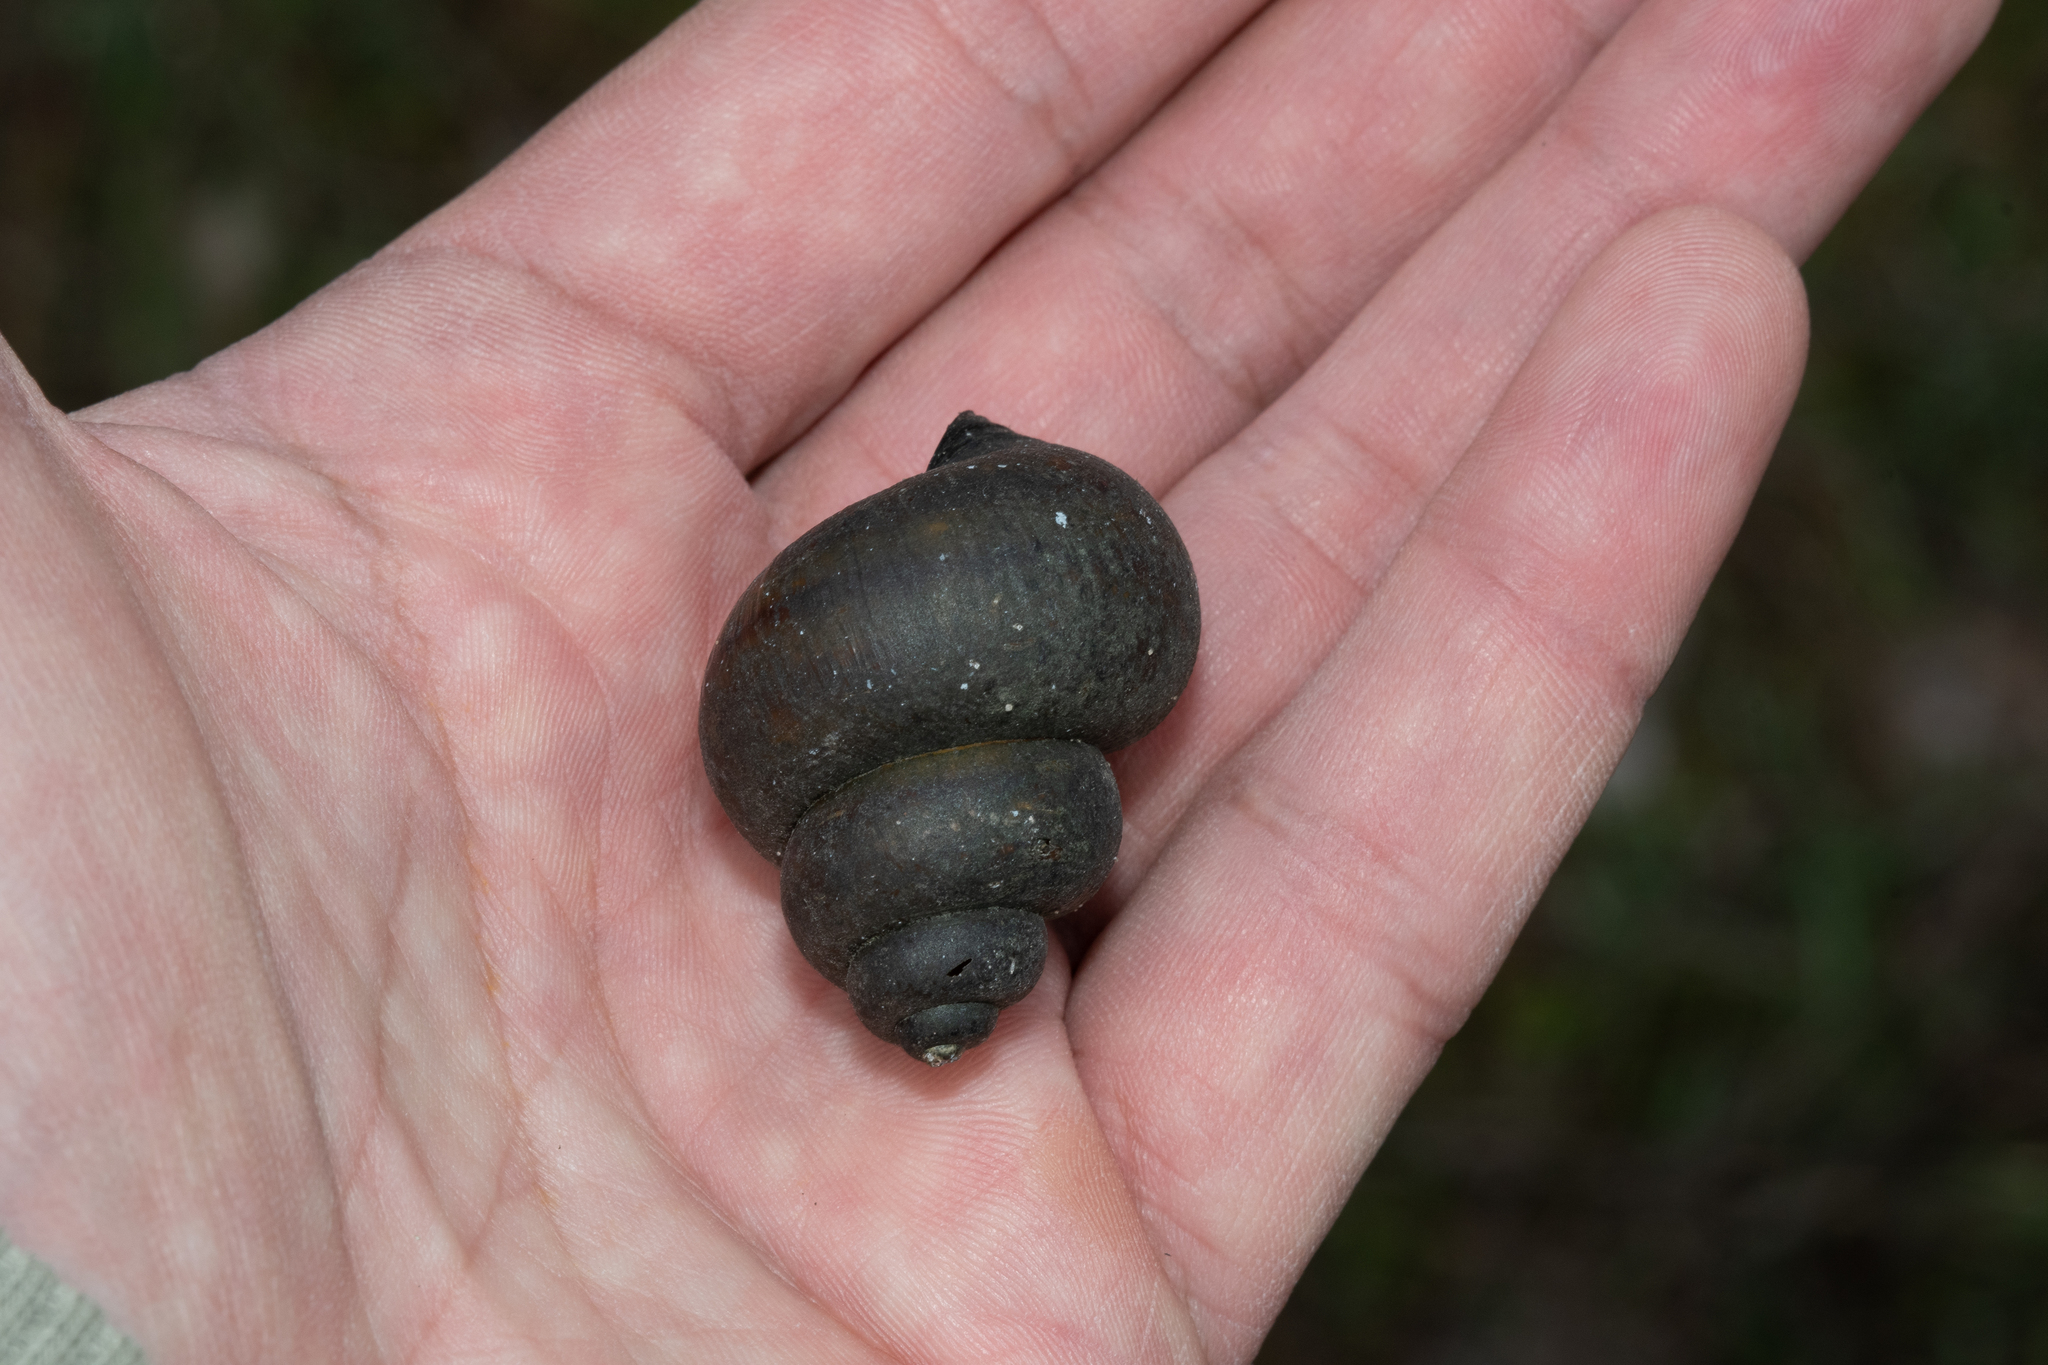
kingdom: Animalia
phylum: Mollusca
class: Gastropoda
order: Architaenioglossa
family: Viviparidae
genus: Viviparus
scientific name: Viviparus contectus
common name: Lister's river snail
